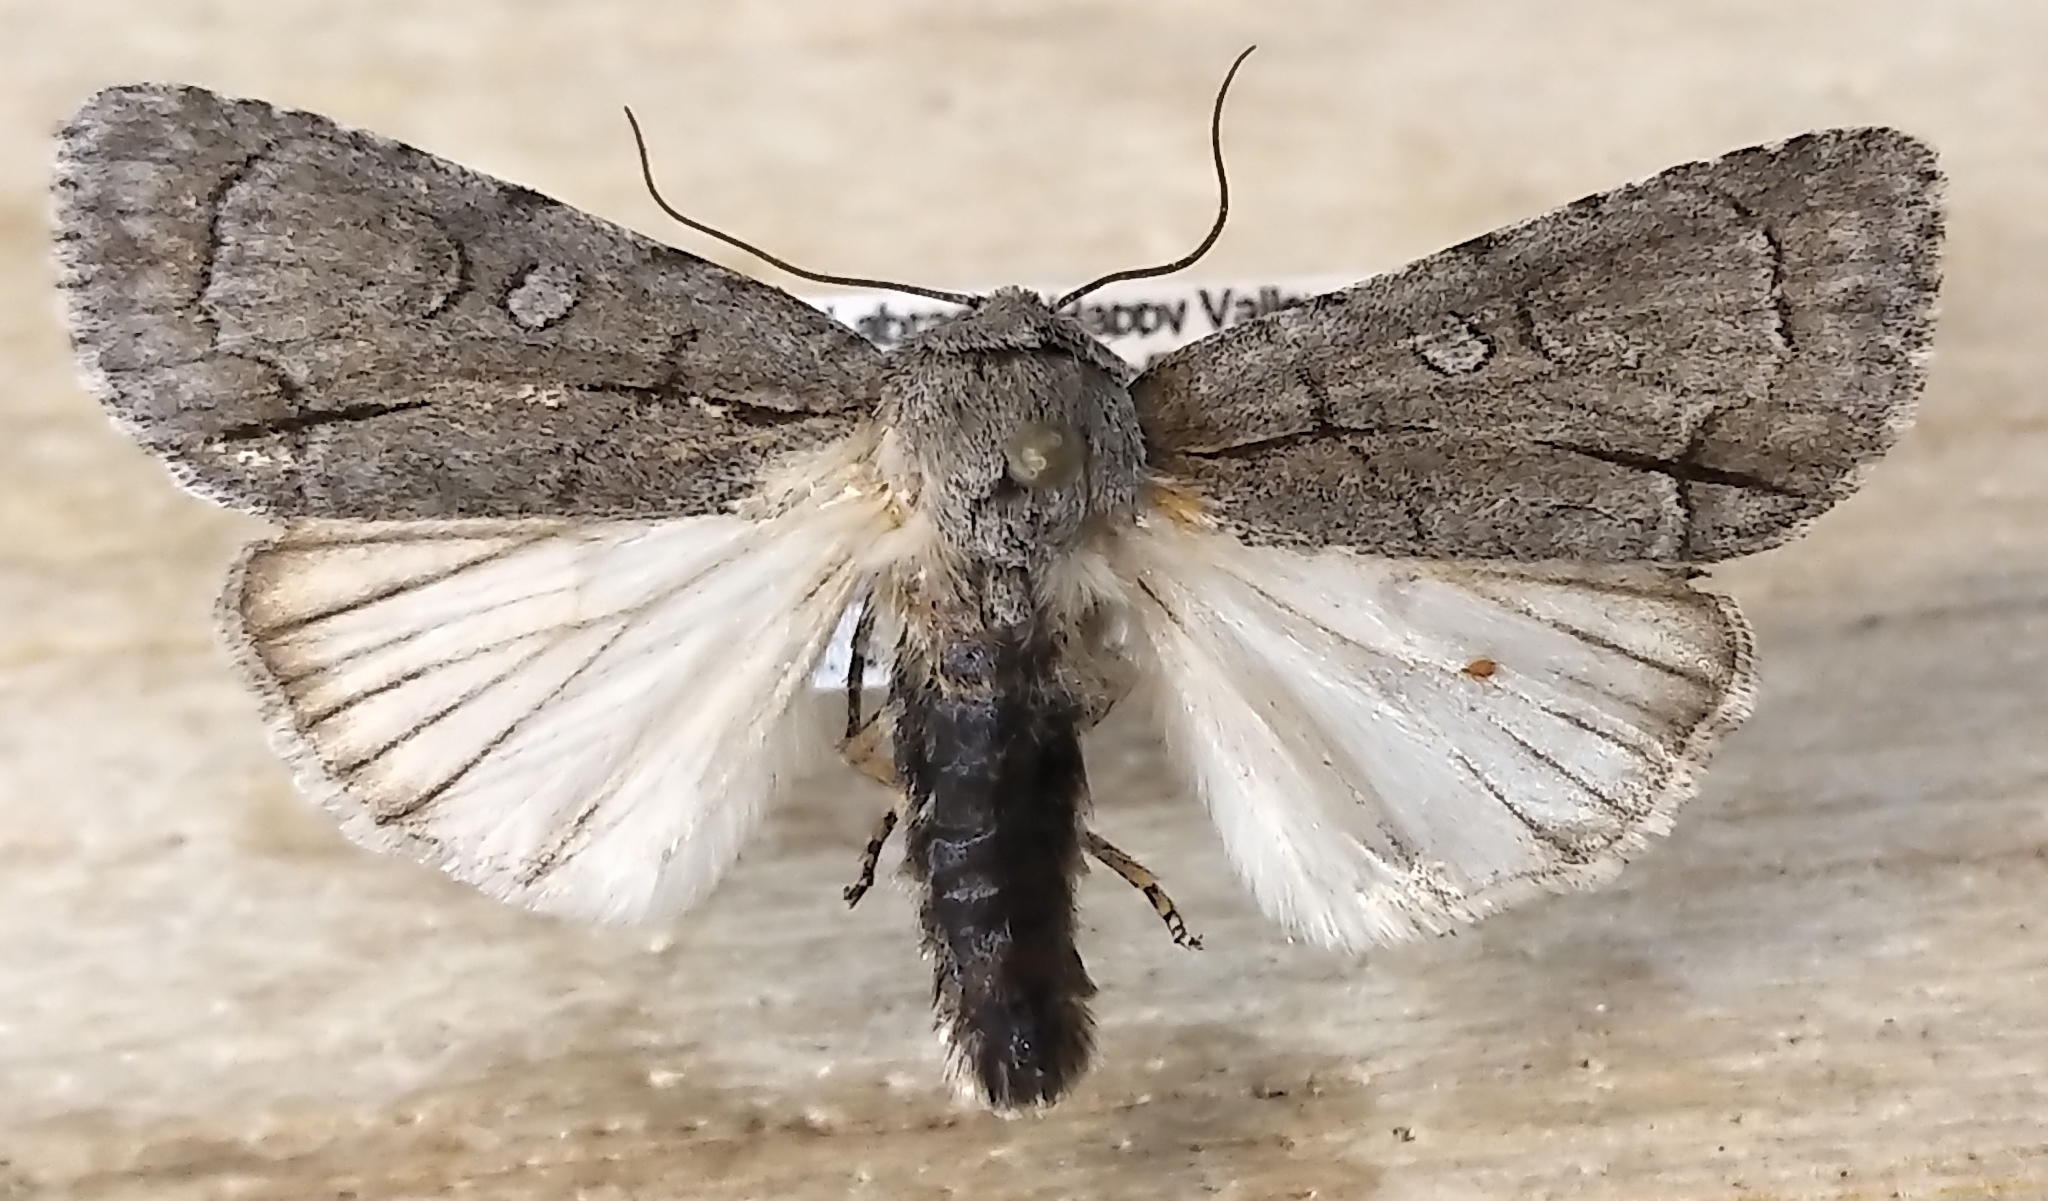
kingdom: Animalia
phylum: Arthropoda
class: Insecta
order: Lepidoptera
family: Noctuidae
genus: Acronicta
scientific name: Acronicta radcliffei
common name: Radcliffe's dagger
